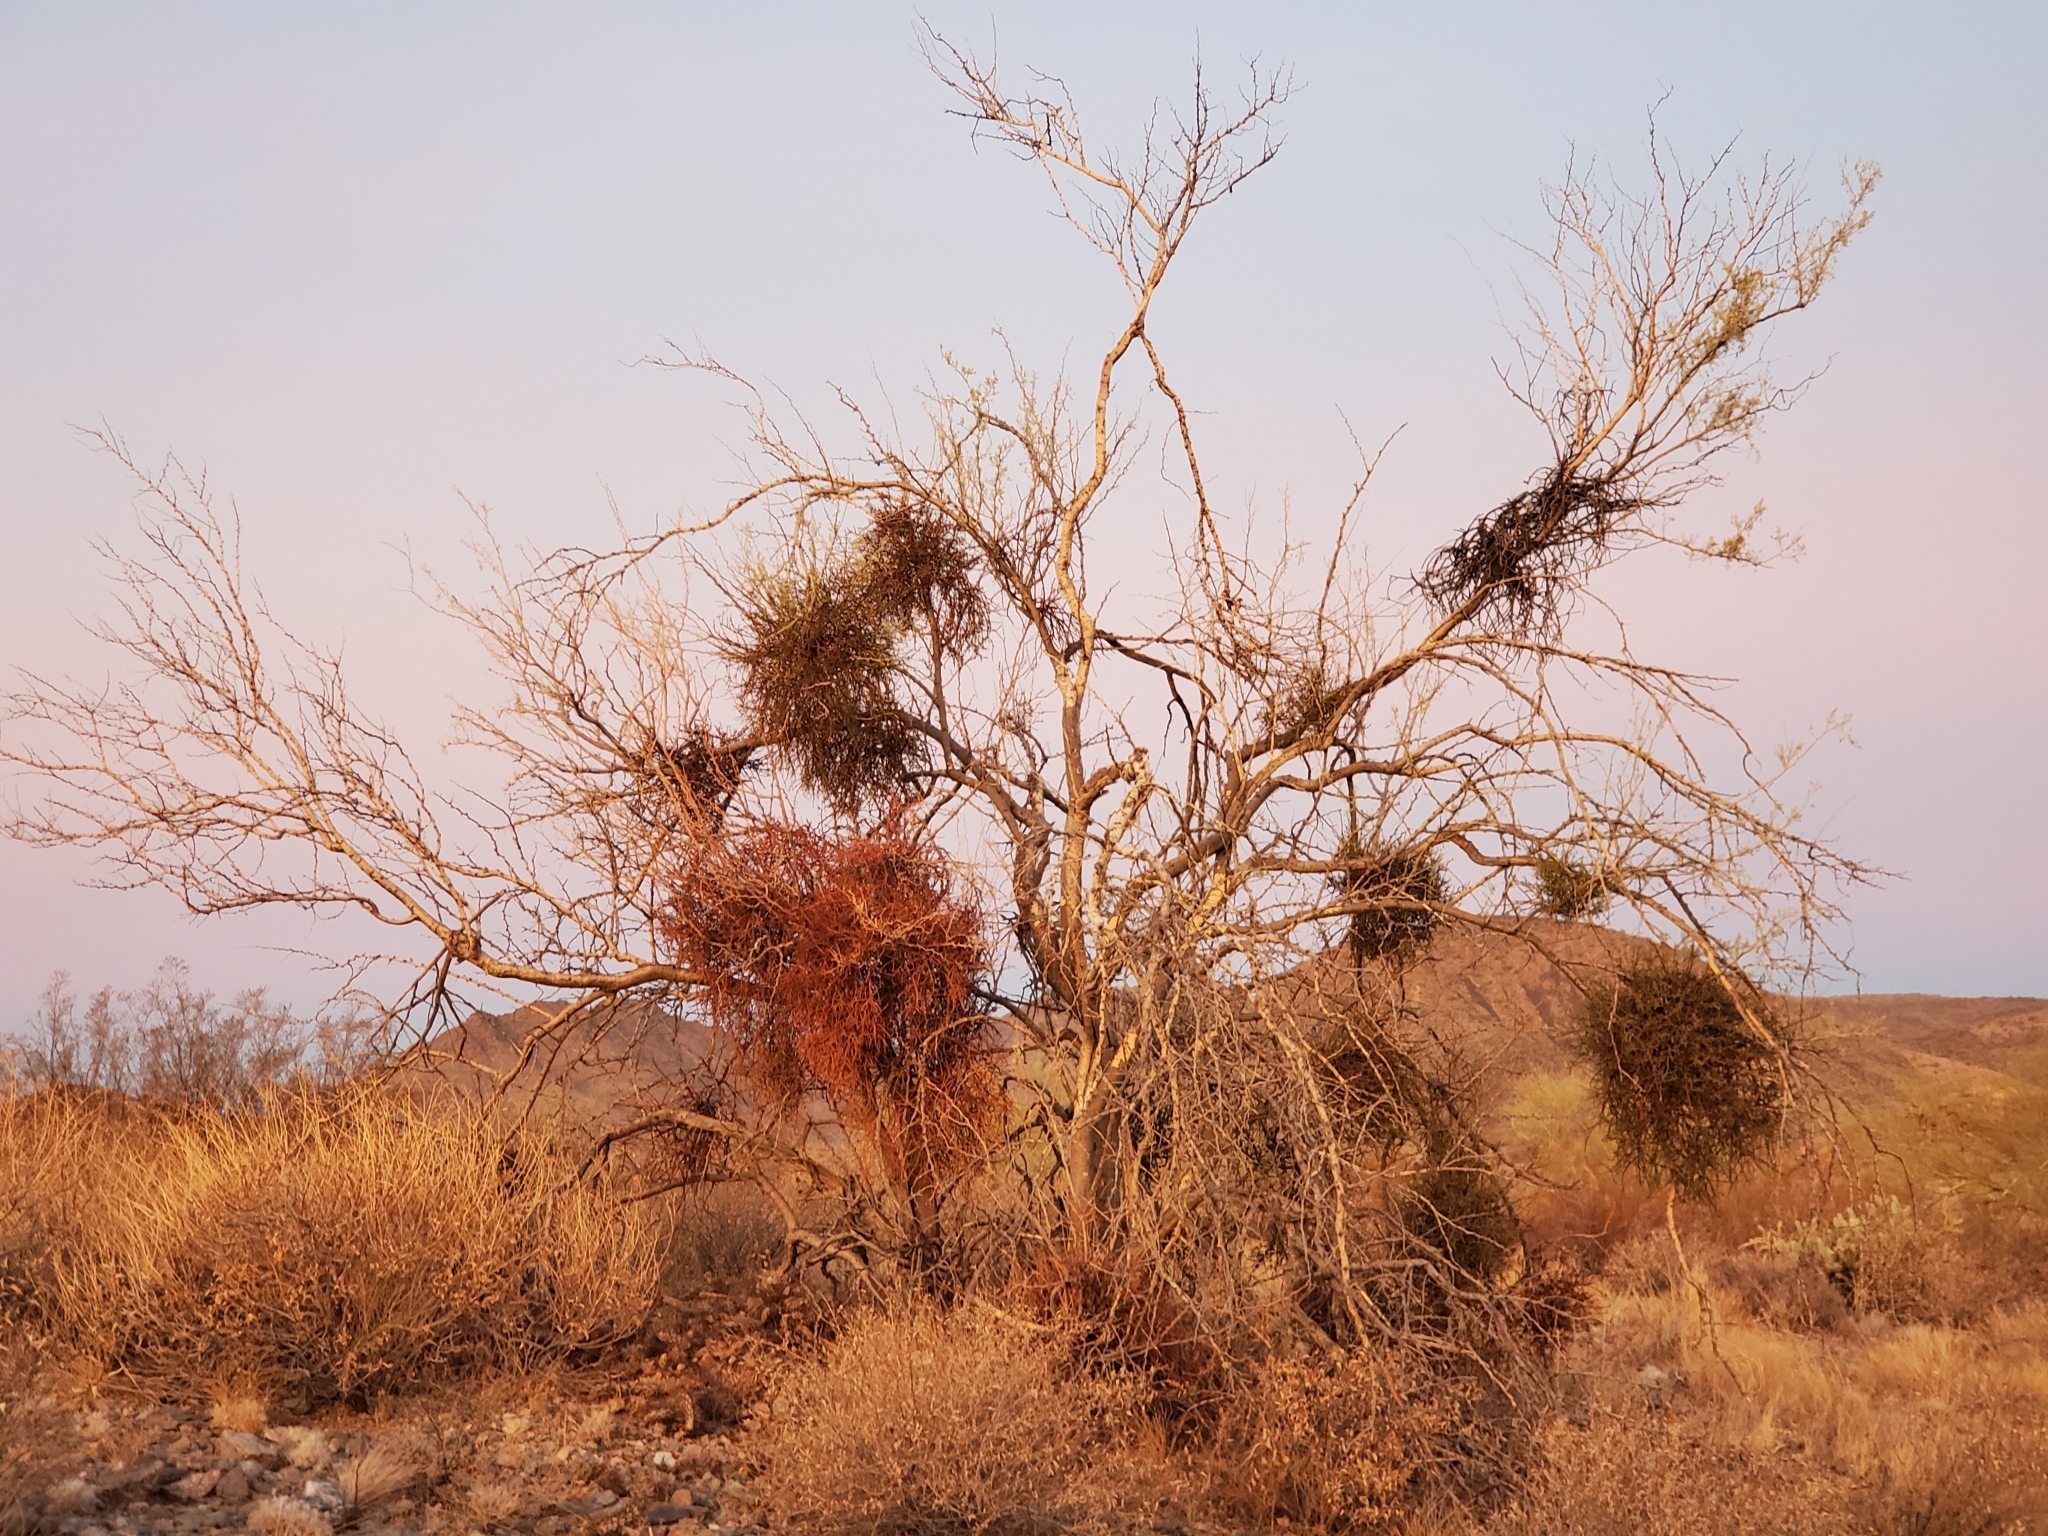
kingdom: Plantae
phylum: Tracheophyta
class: Magnoliopsida
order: Fabales
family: Fabaceae
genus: Olneya
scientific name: Olneya tesota
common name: Desert ironwood
